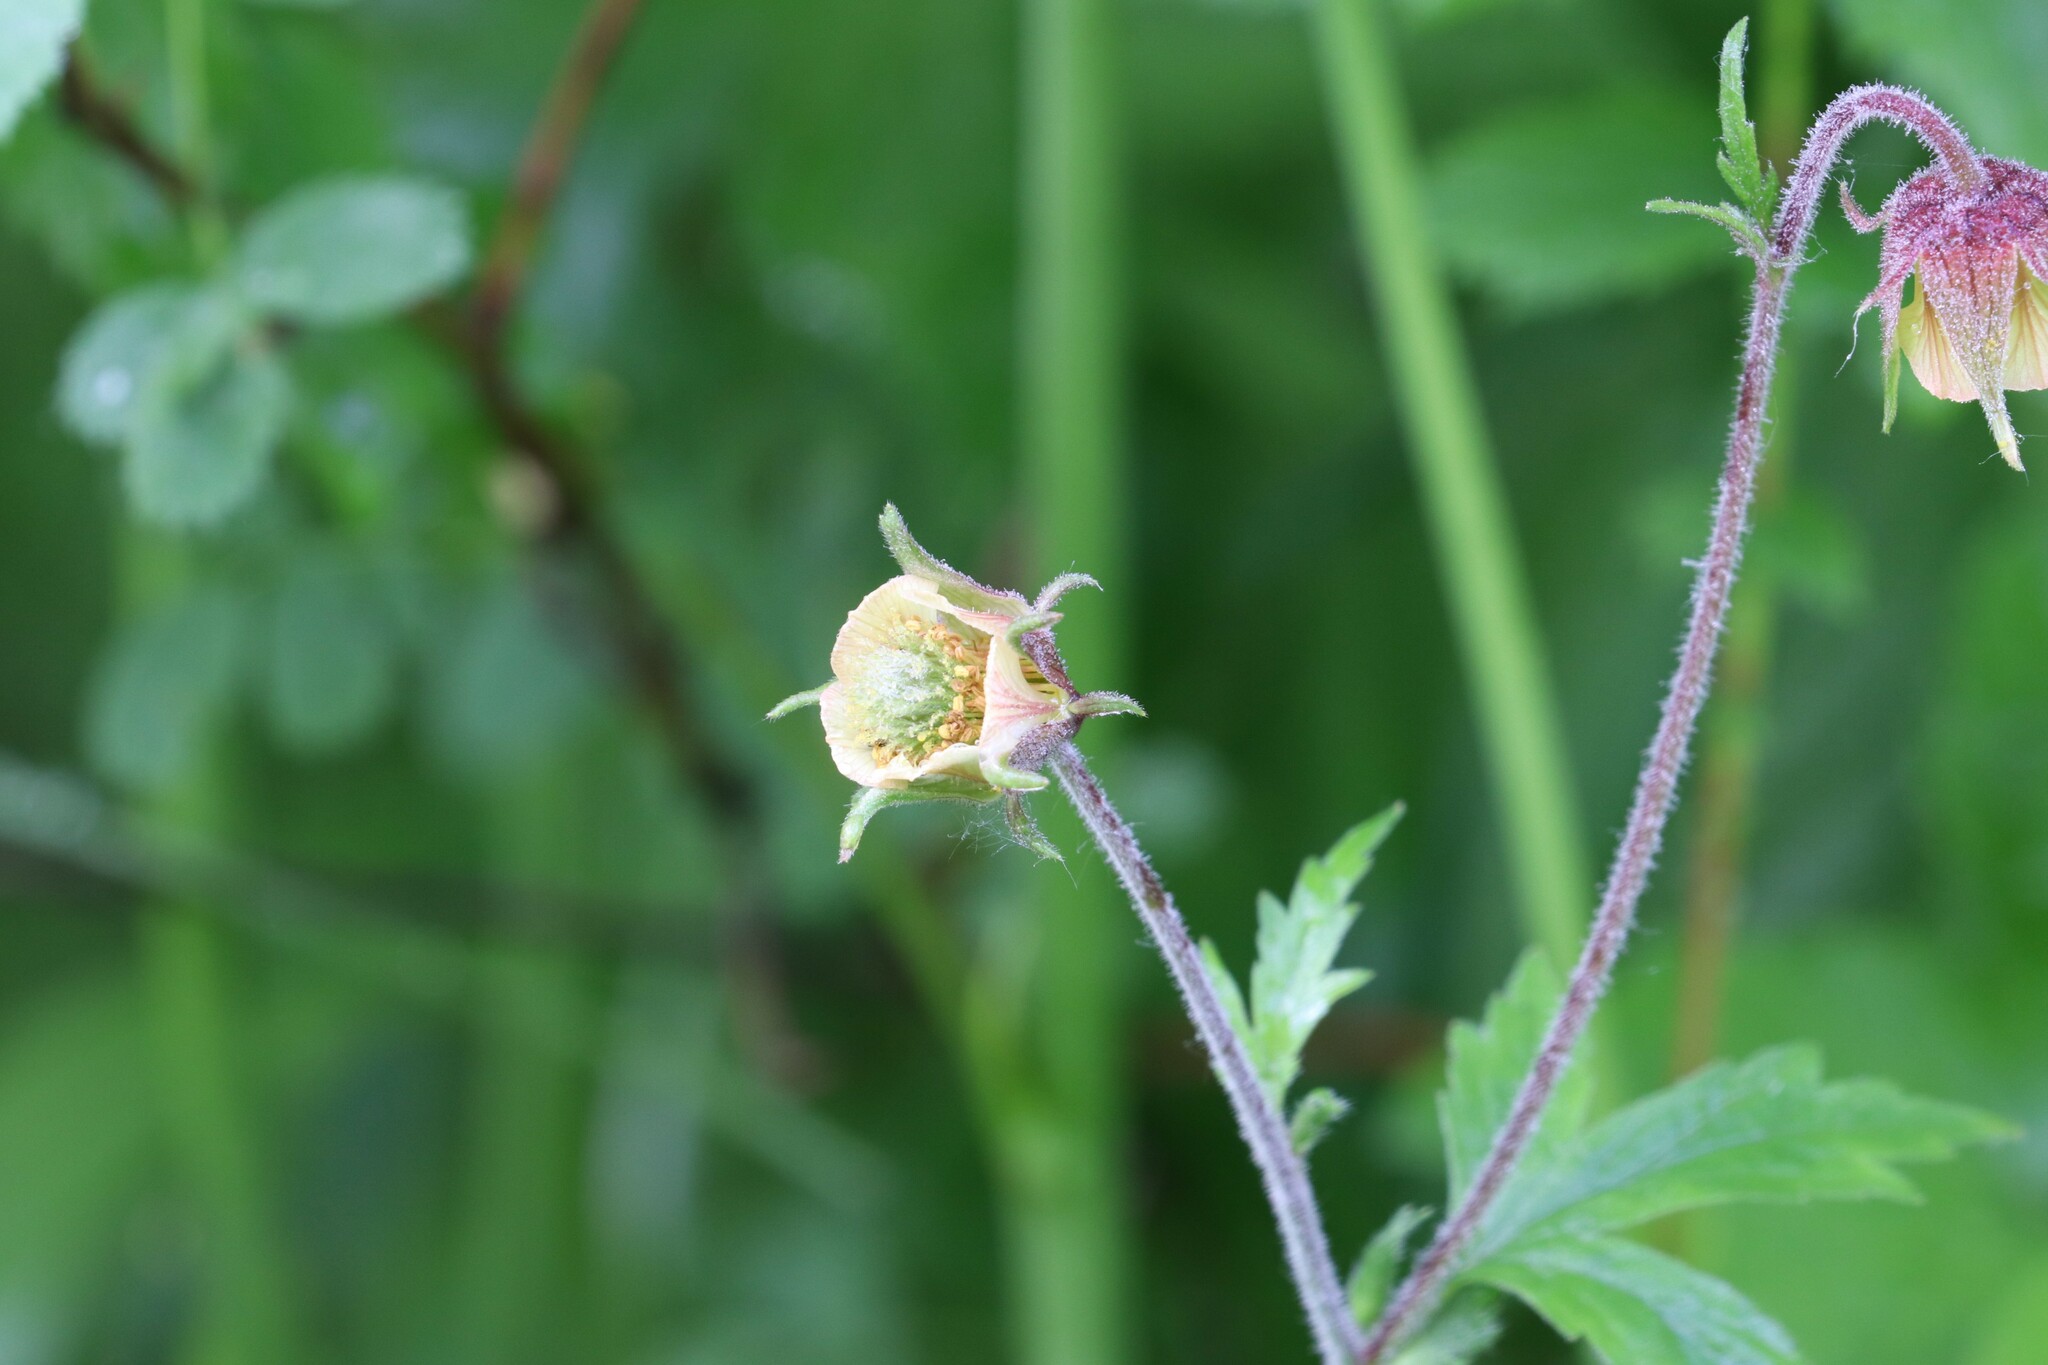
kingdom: Plantae
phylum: Tracheophyta
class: Magnoliopsida
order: Rosales
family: Rosaceae
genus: Geum
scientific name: Geum rivale
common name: Water avens
